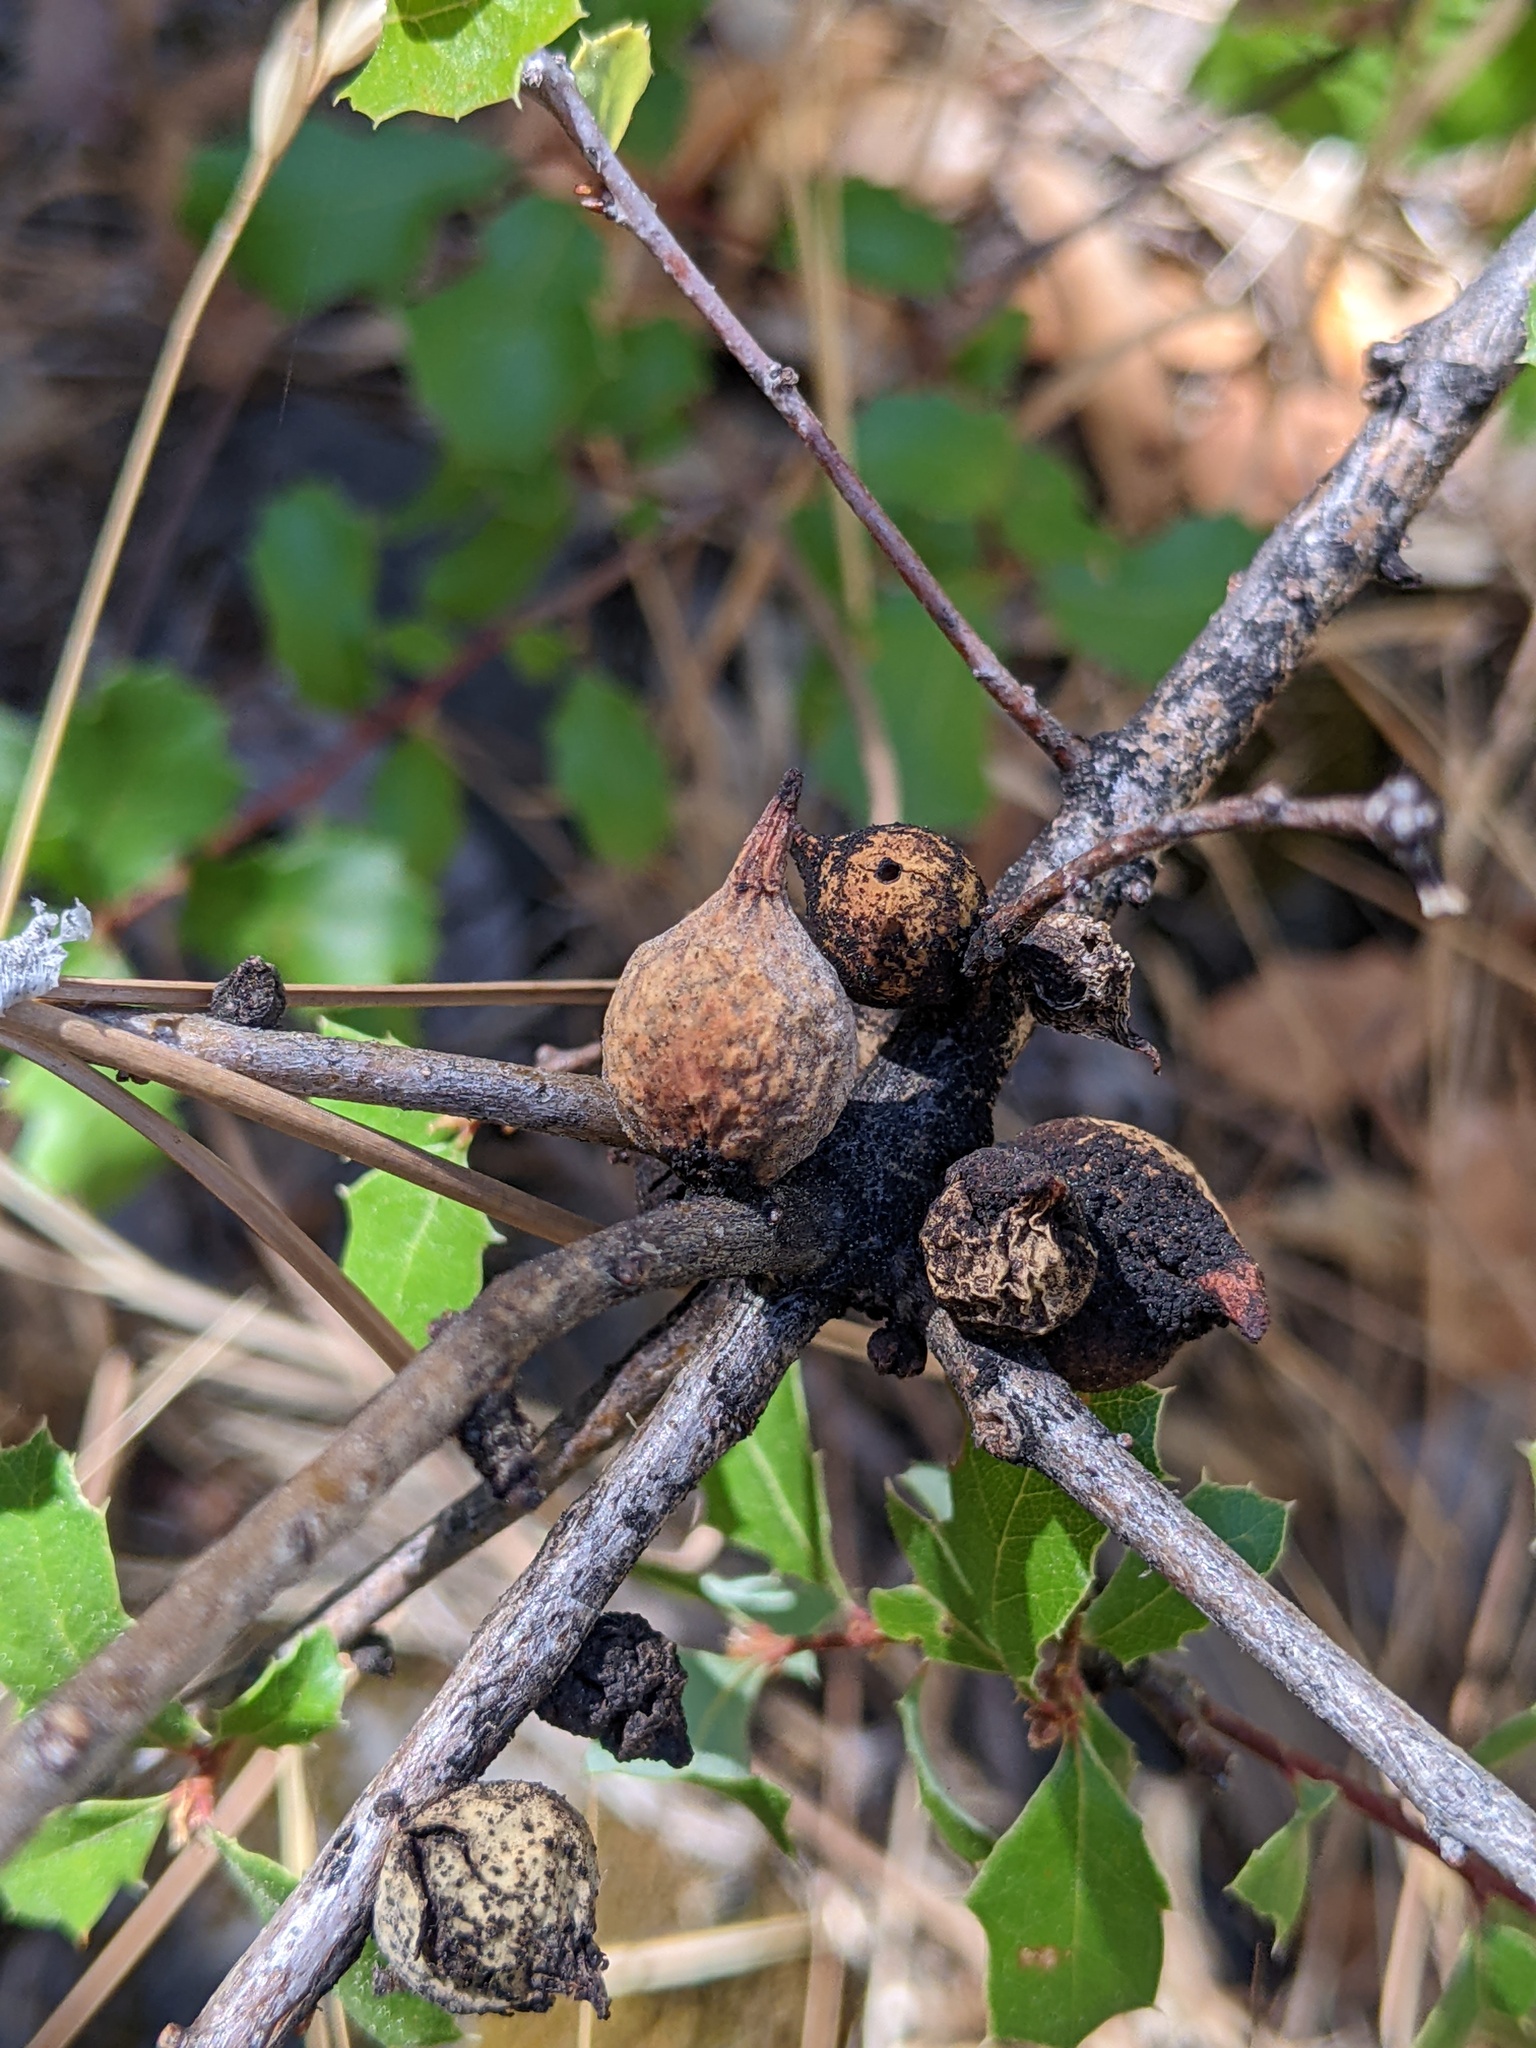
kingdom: Animalia
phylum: Arthropoda
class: Insecta
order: Hymenoptera
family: Cynipidae
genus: Burnettweldia
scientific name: Burnettweldia
